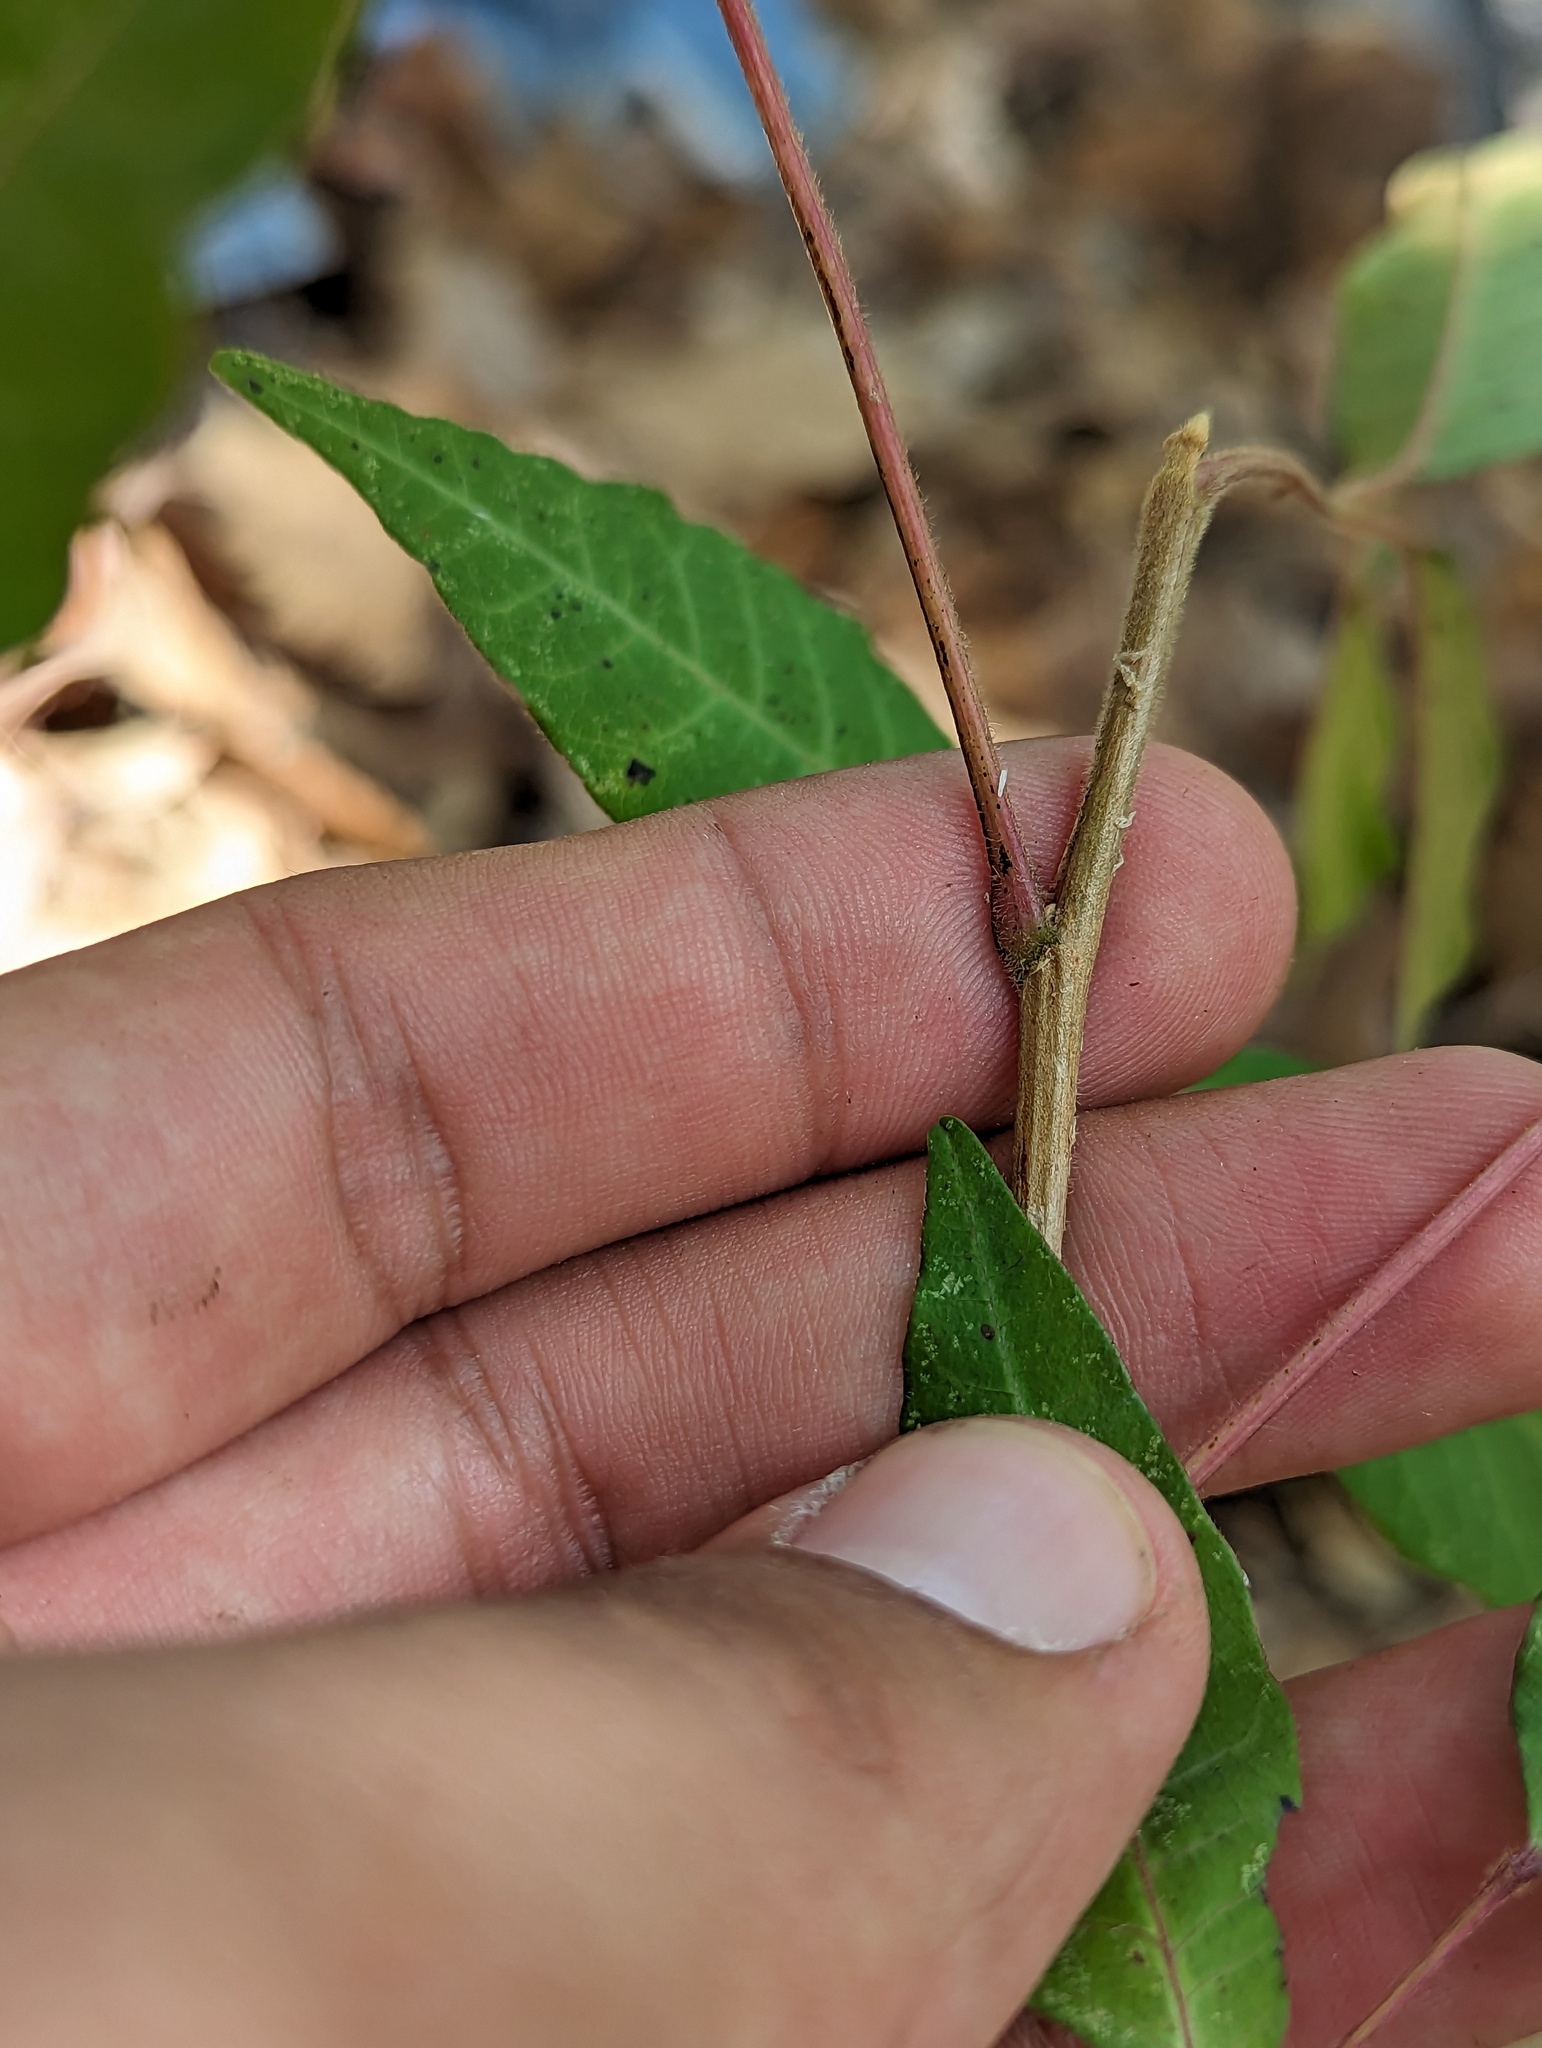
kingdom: Plantae
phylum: Tracheophyta
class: Magnoliopsida
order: Sapindales
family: Anacardiaceae
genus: Toxicodendron
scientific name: Toxicodendron radicans
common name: Poison ivy
